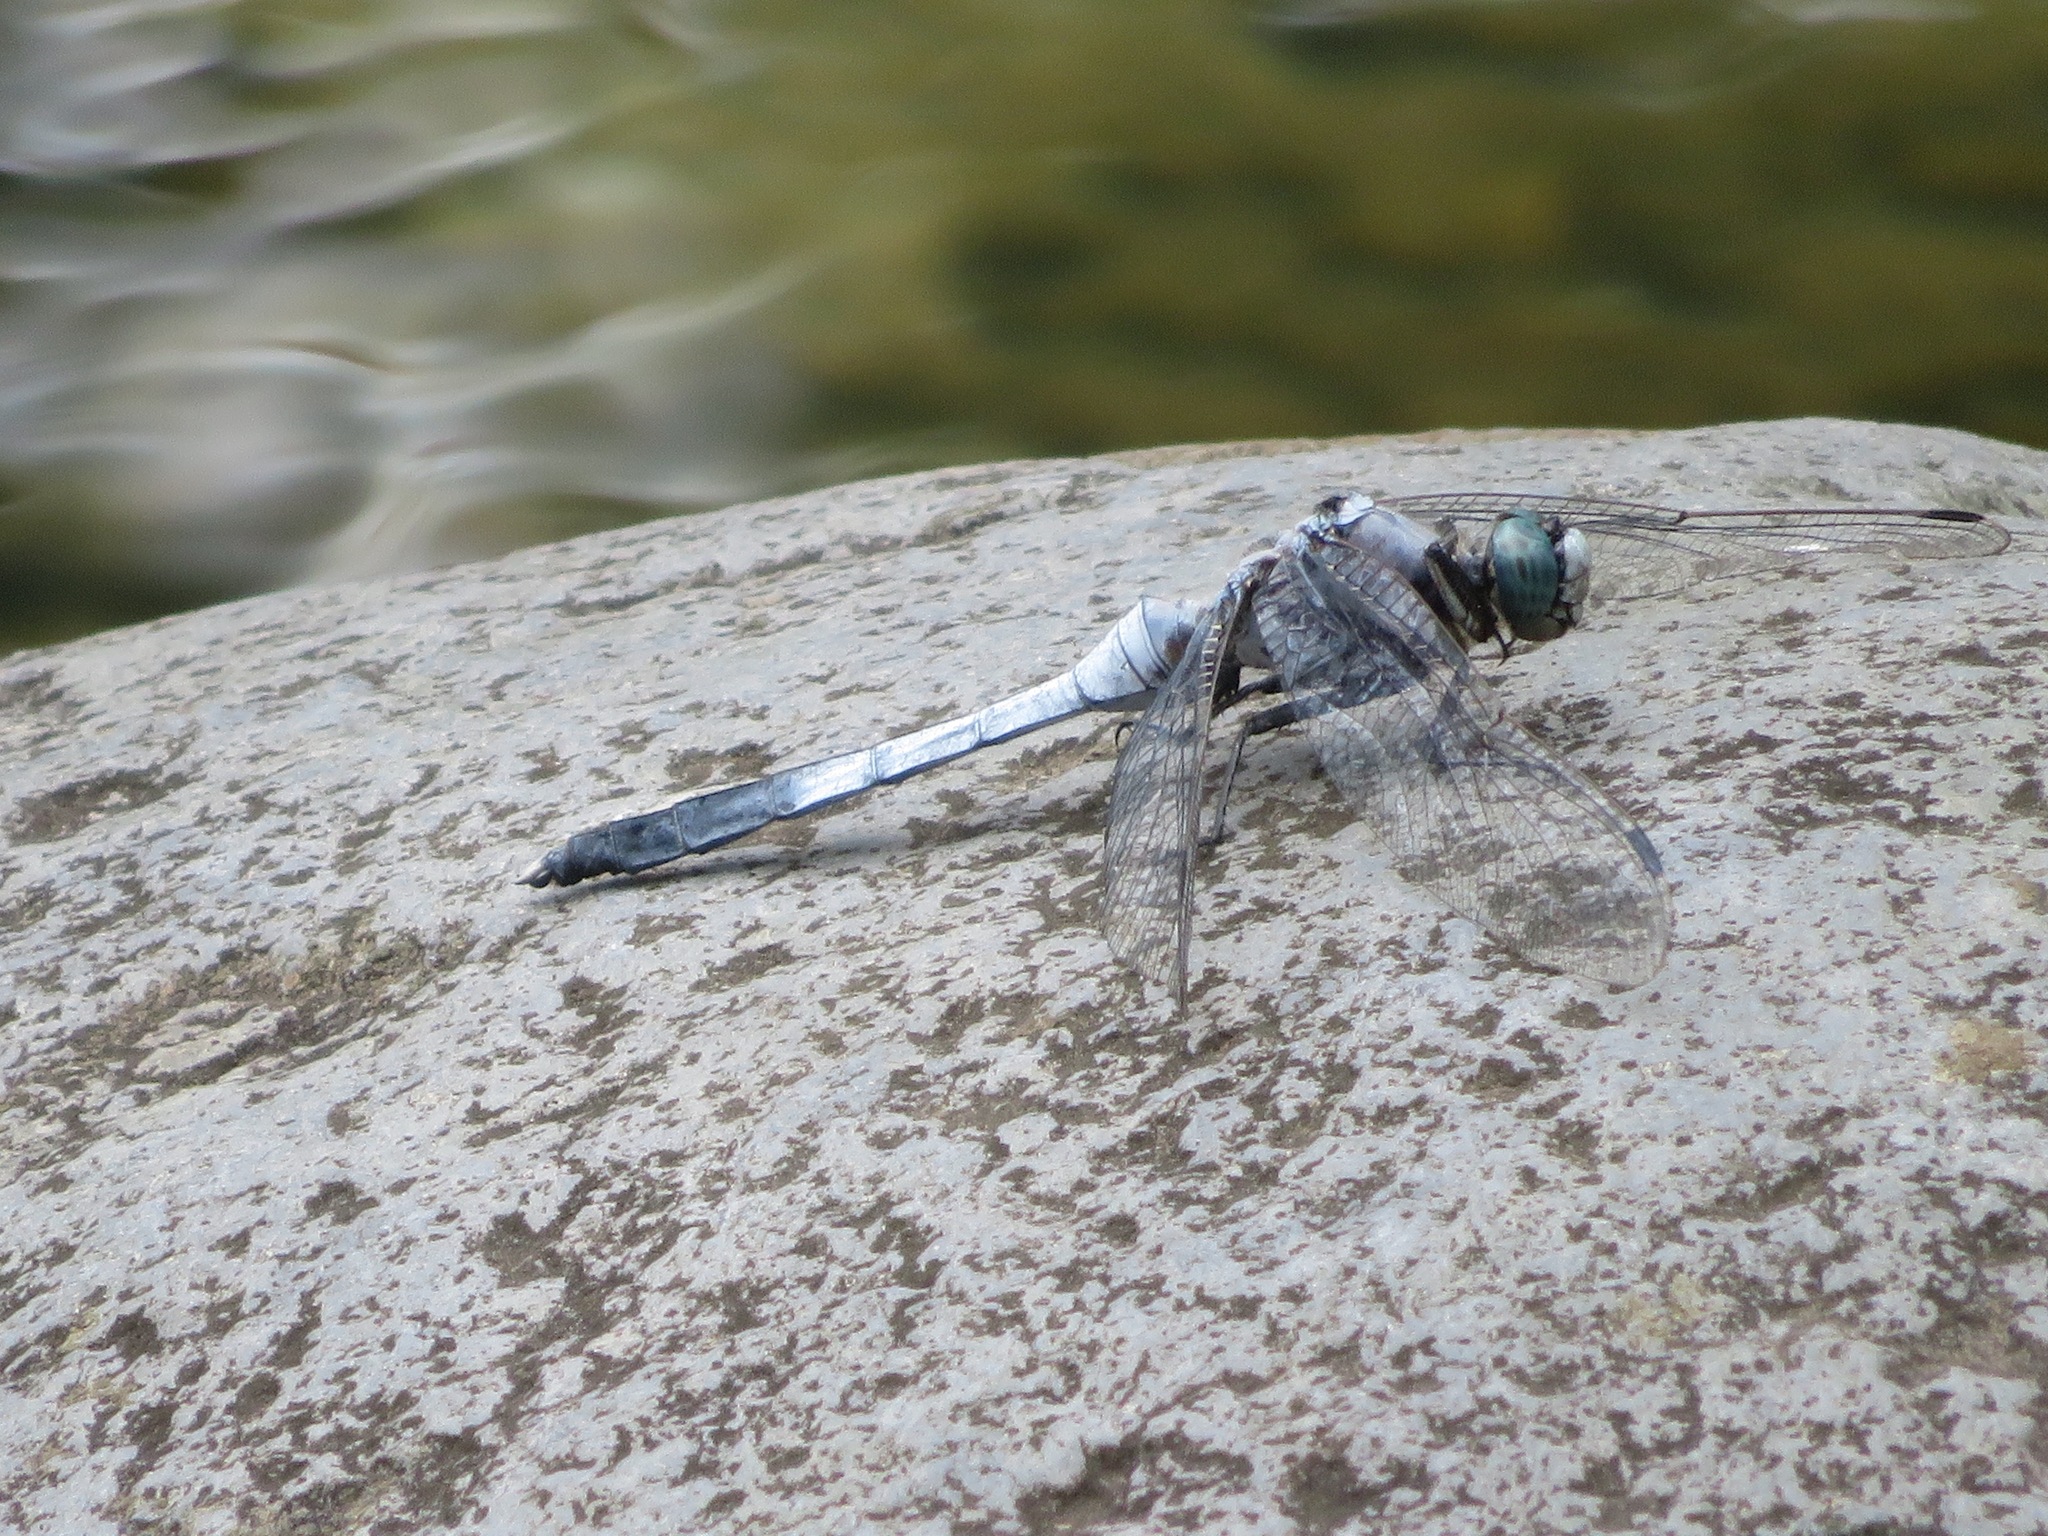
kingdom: Animalia
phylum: Arthropoda
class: Insecta
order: Odonata
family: Libellulidae
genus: Orthetrum
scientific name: Orthetrum albistylum
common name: White-tailed skimmer
